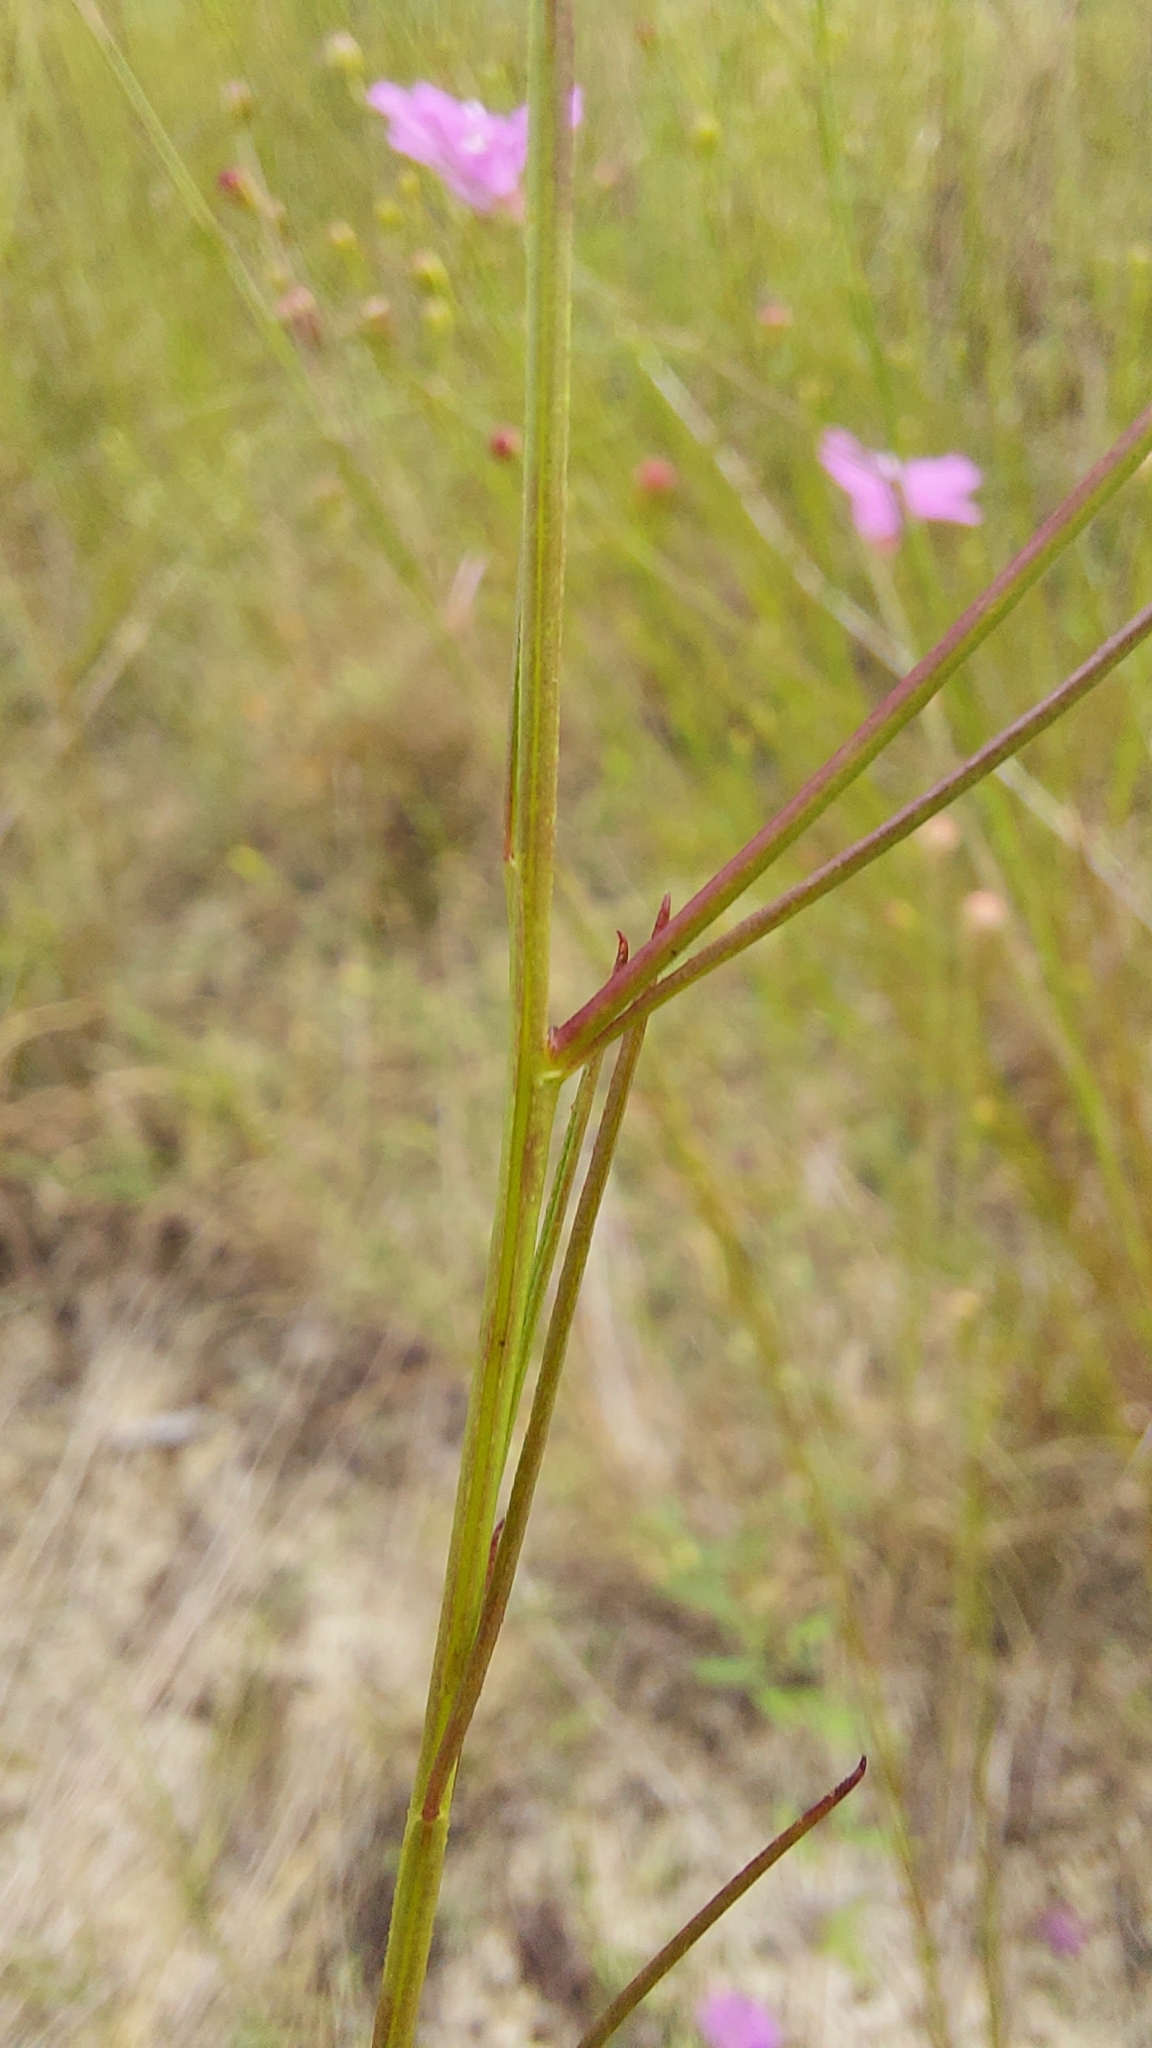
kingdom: Plantae
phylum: Tracheophyta
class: Magnoliopsida
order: Lamiales
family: Orobanchaceae
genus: Agalinis
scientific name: Agalinis plukenetii
